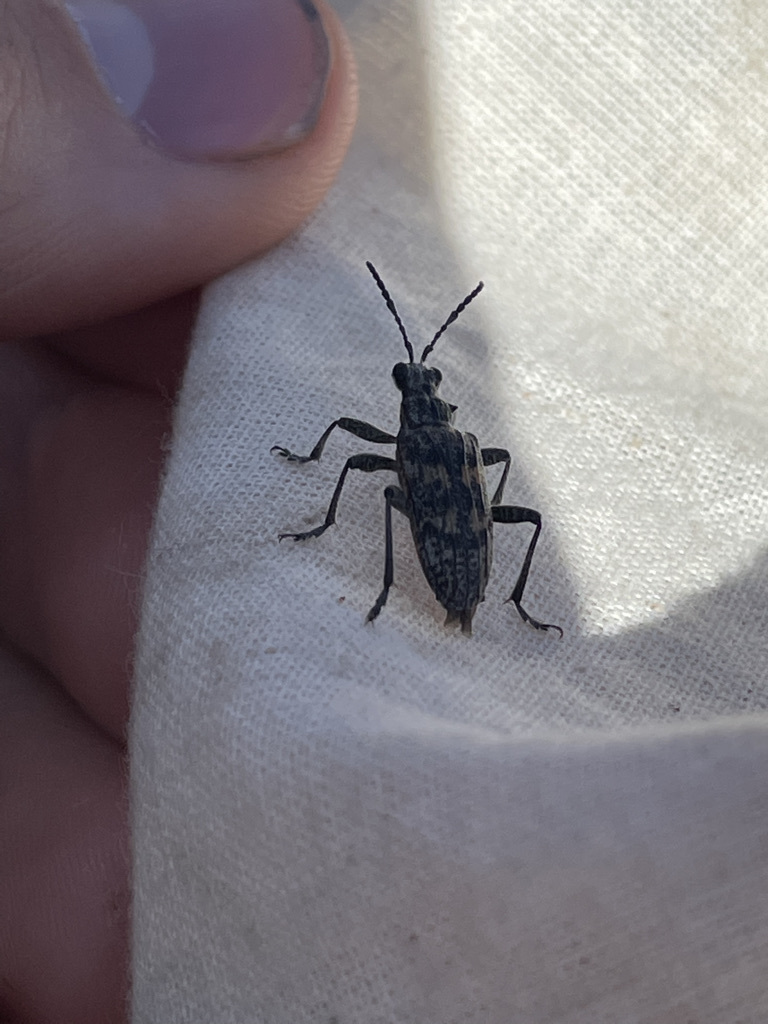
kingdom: Animalia
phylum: Arthropoda
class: Insecta
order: Coleoptera
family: Cerambycidae
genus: Rhagium
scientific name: Rhagium inquisitor
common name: Ribbed pine borer
